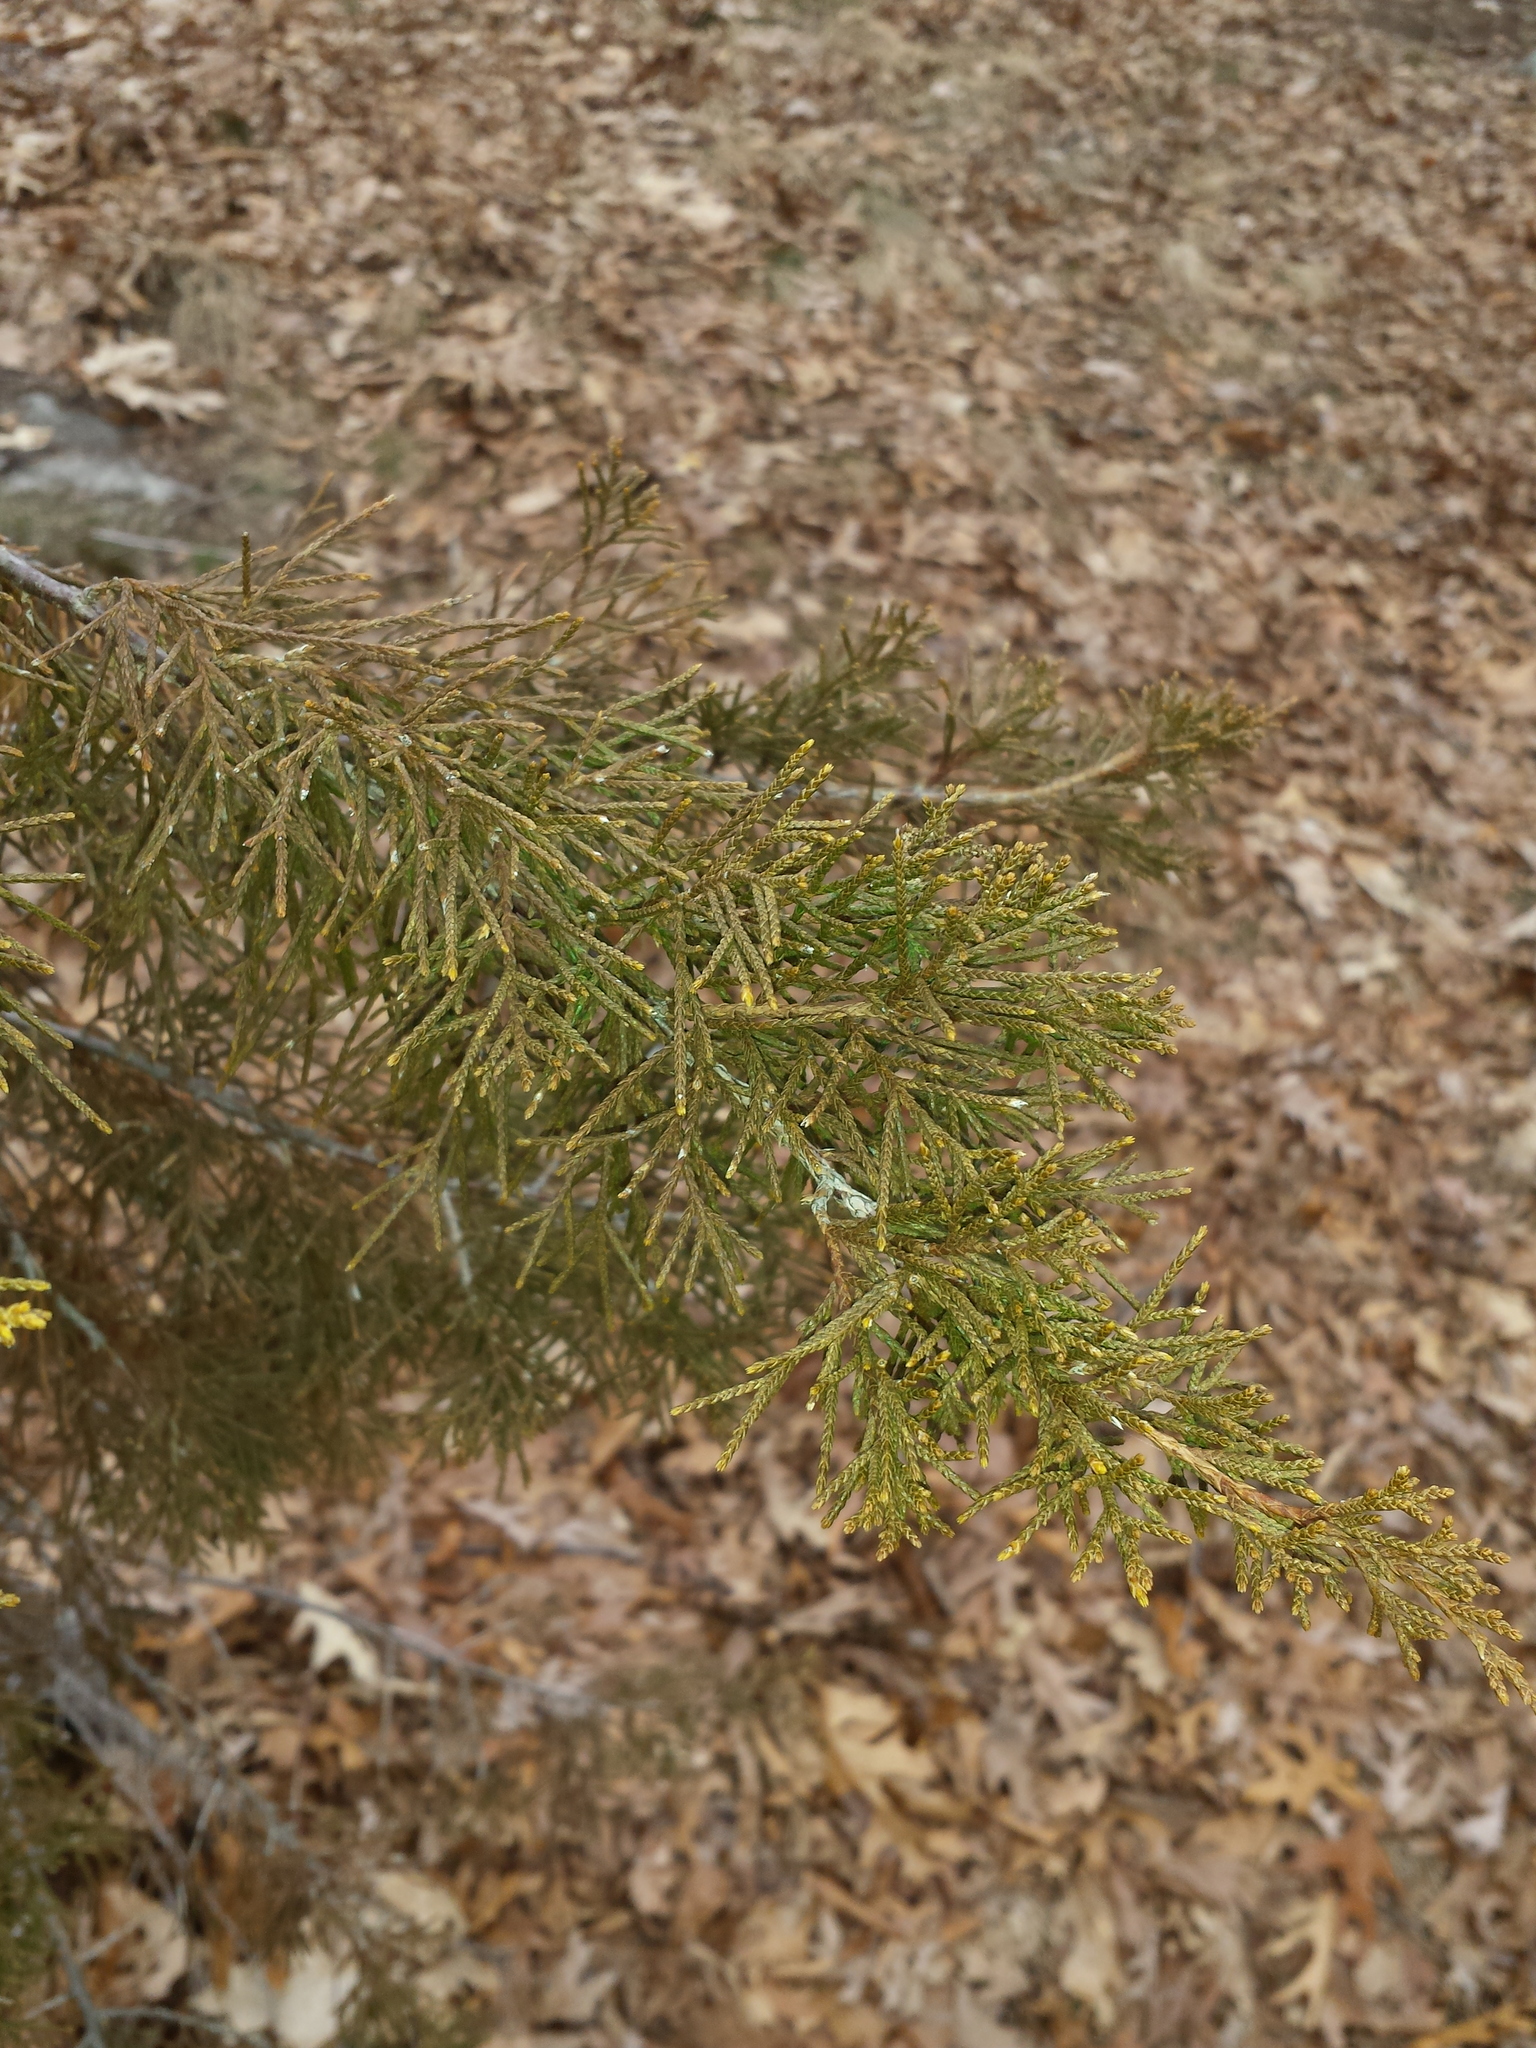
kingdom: Plantae
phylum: Tracheophyta
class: Pinopsida
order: Pinales
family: Cupressaceae
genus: Juniperus
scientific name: Juniperus virginiana
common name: Red juniper
